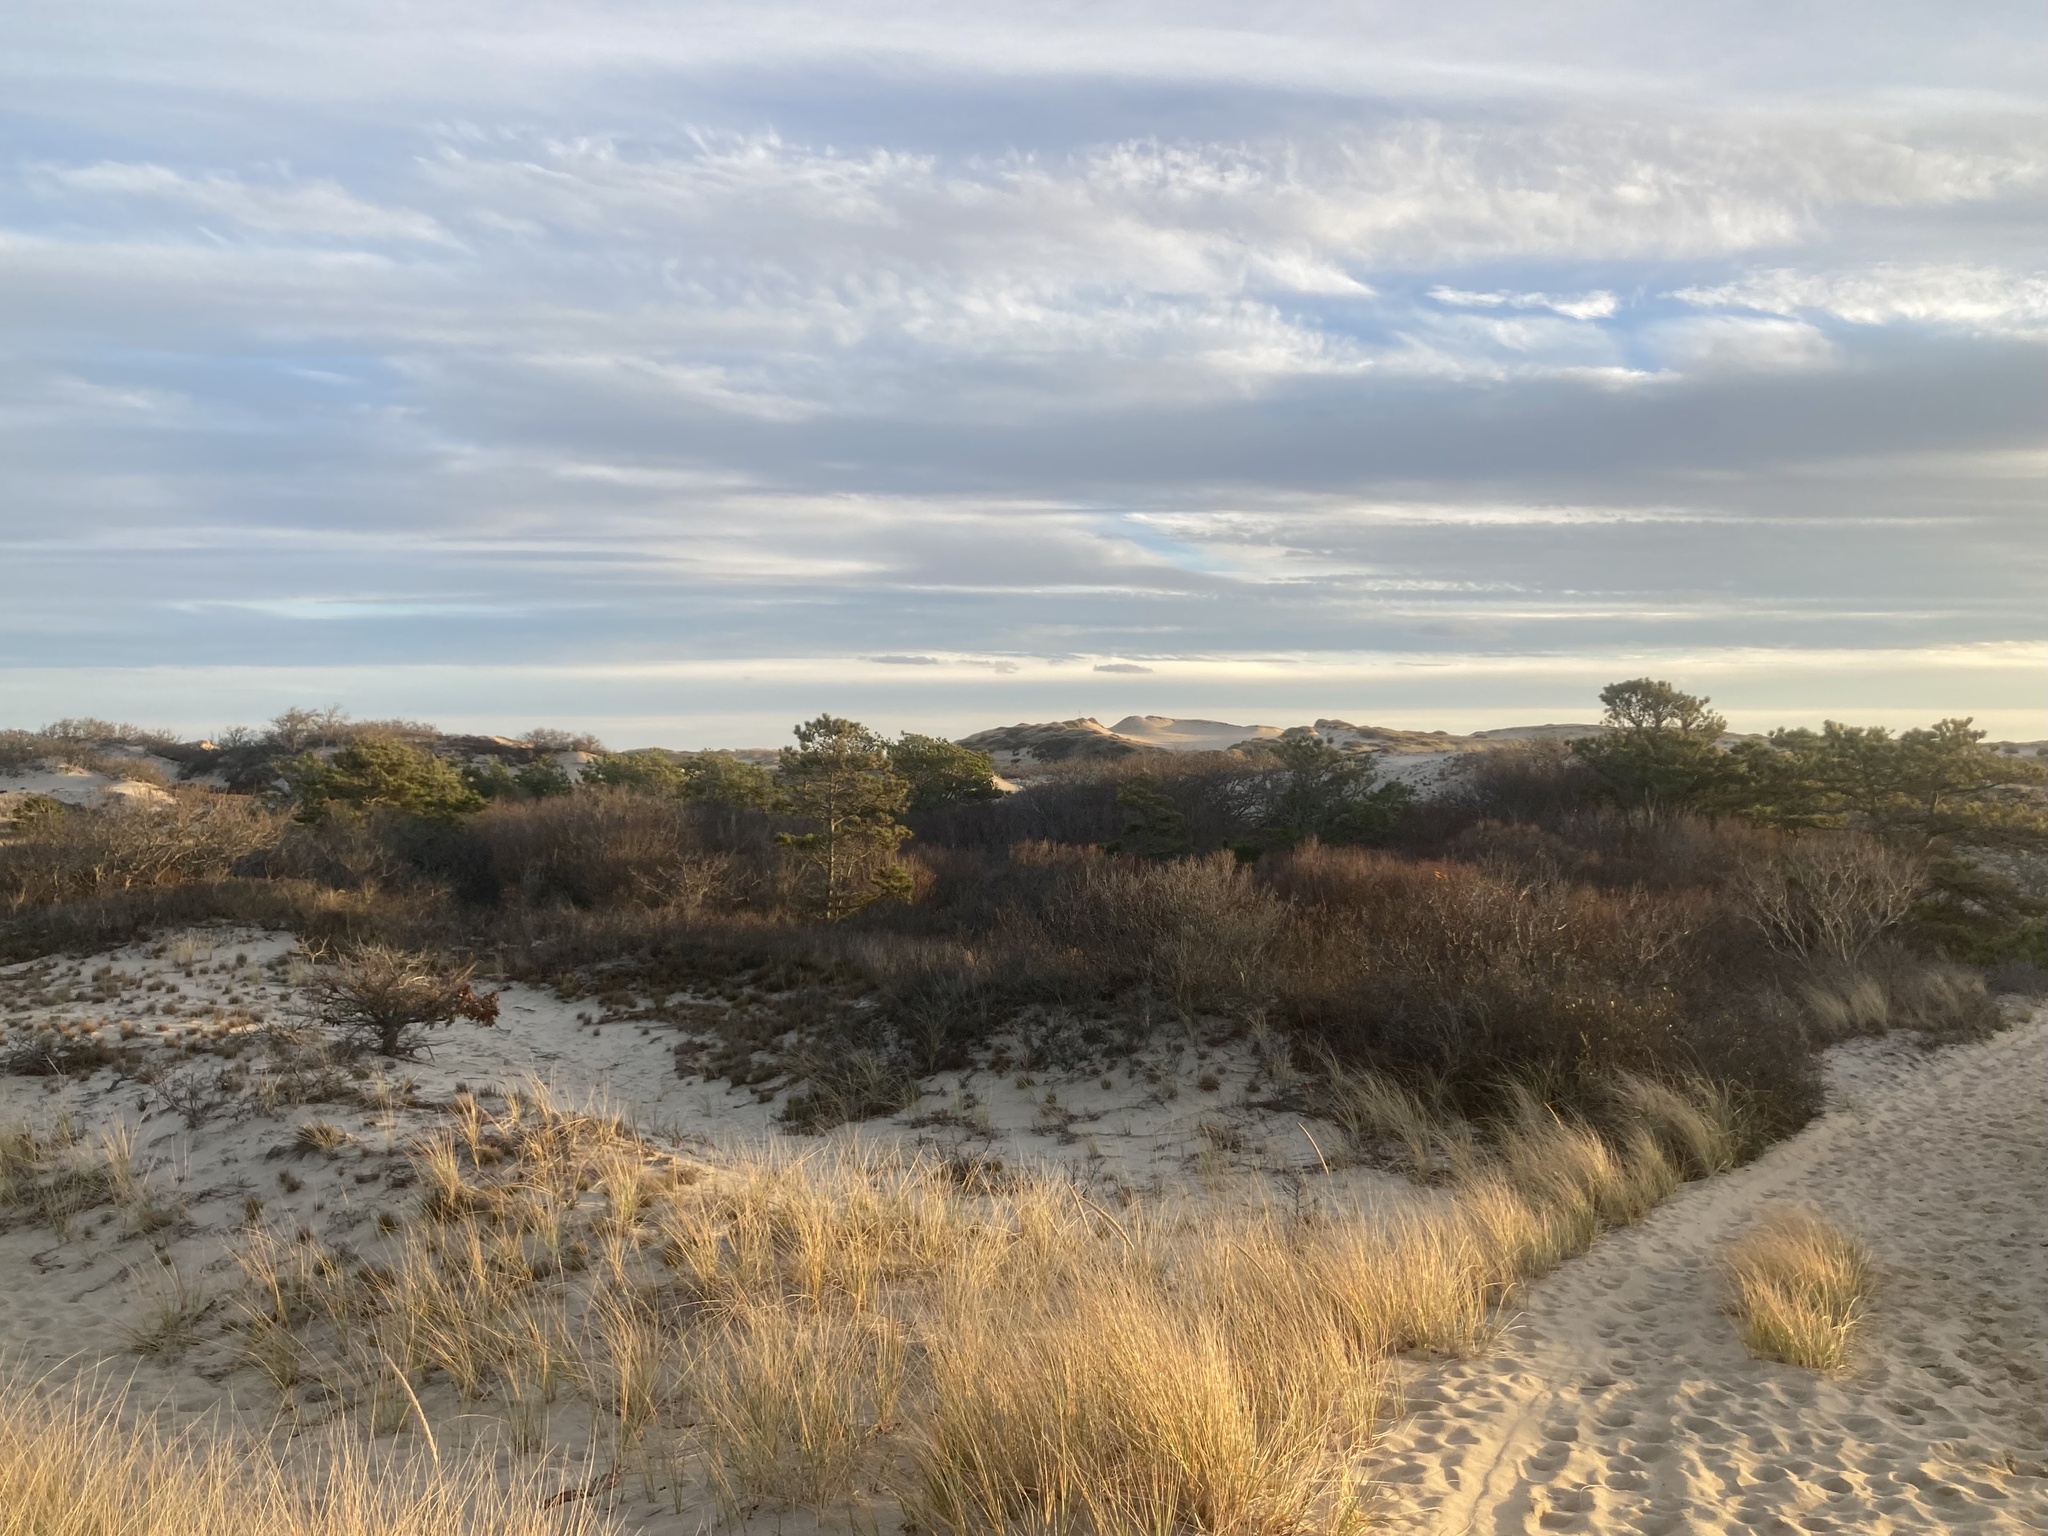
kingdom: Plantae
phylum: Tracheophyta
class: Liliopsida
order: Poales
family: Poaceae
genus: Calamagrostis
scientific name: Calamagrostis breviligulata
